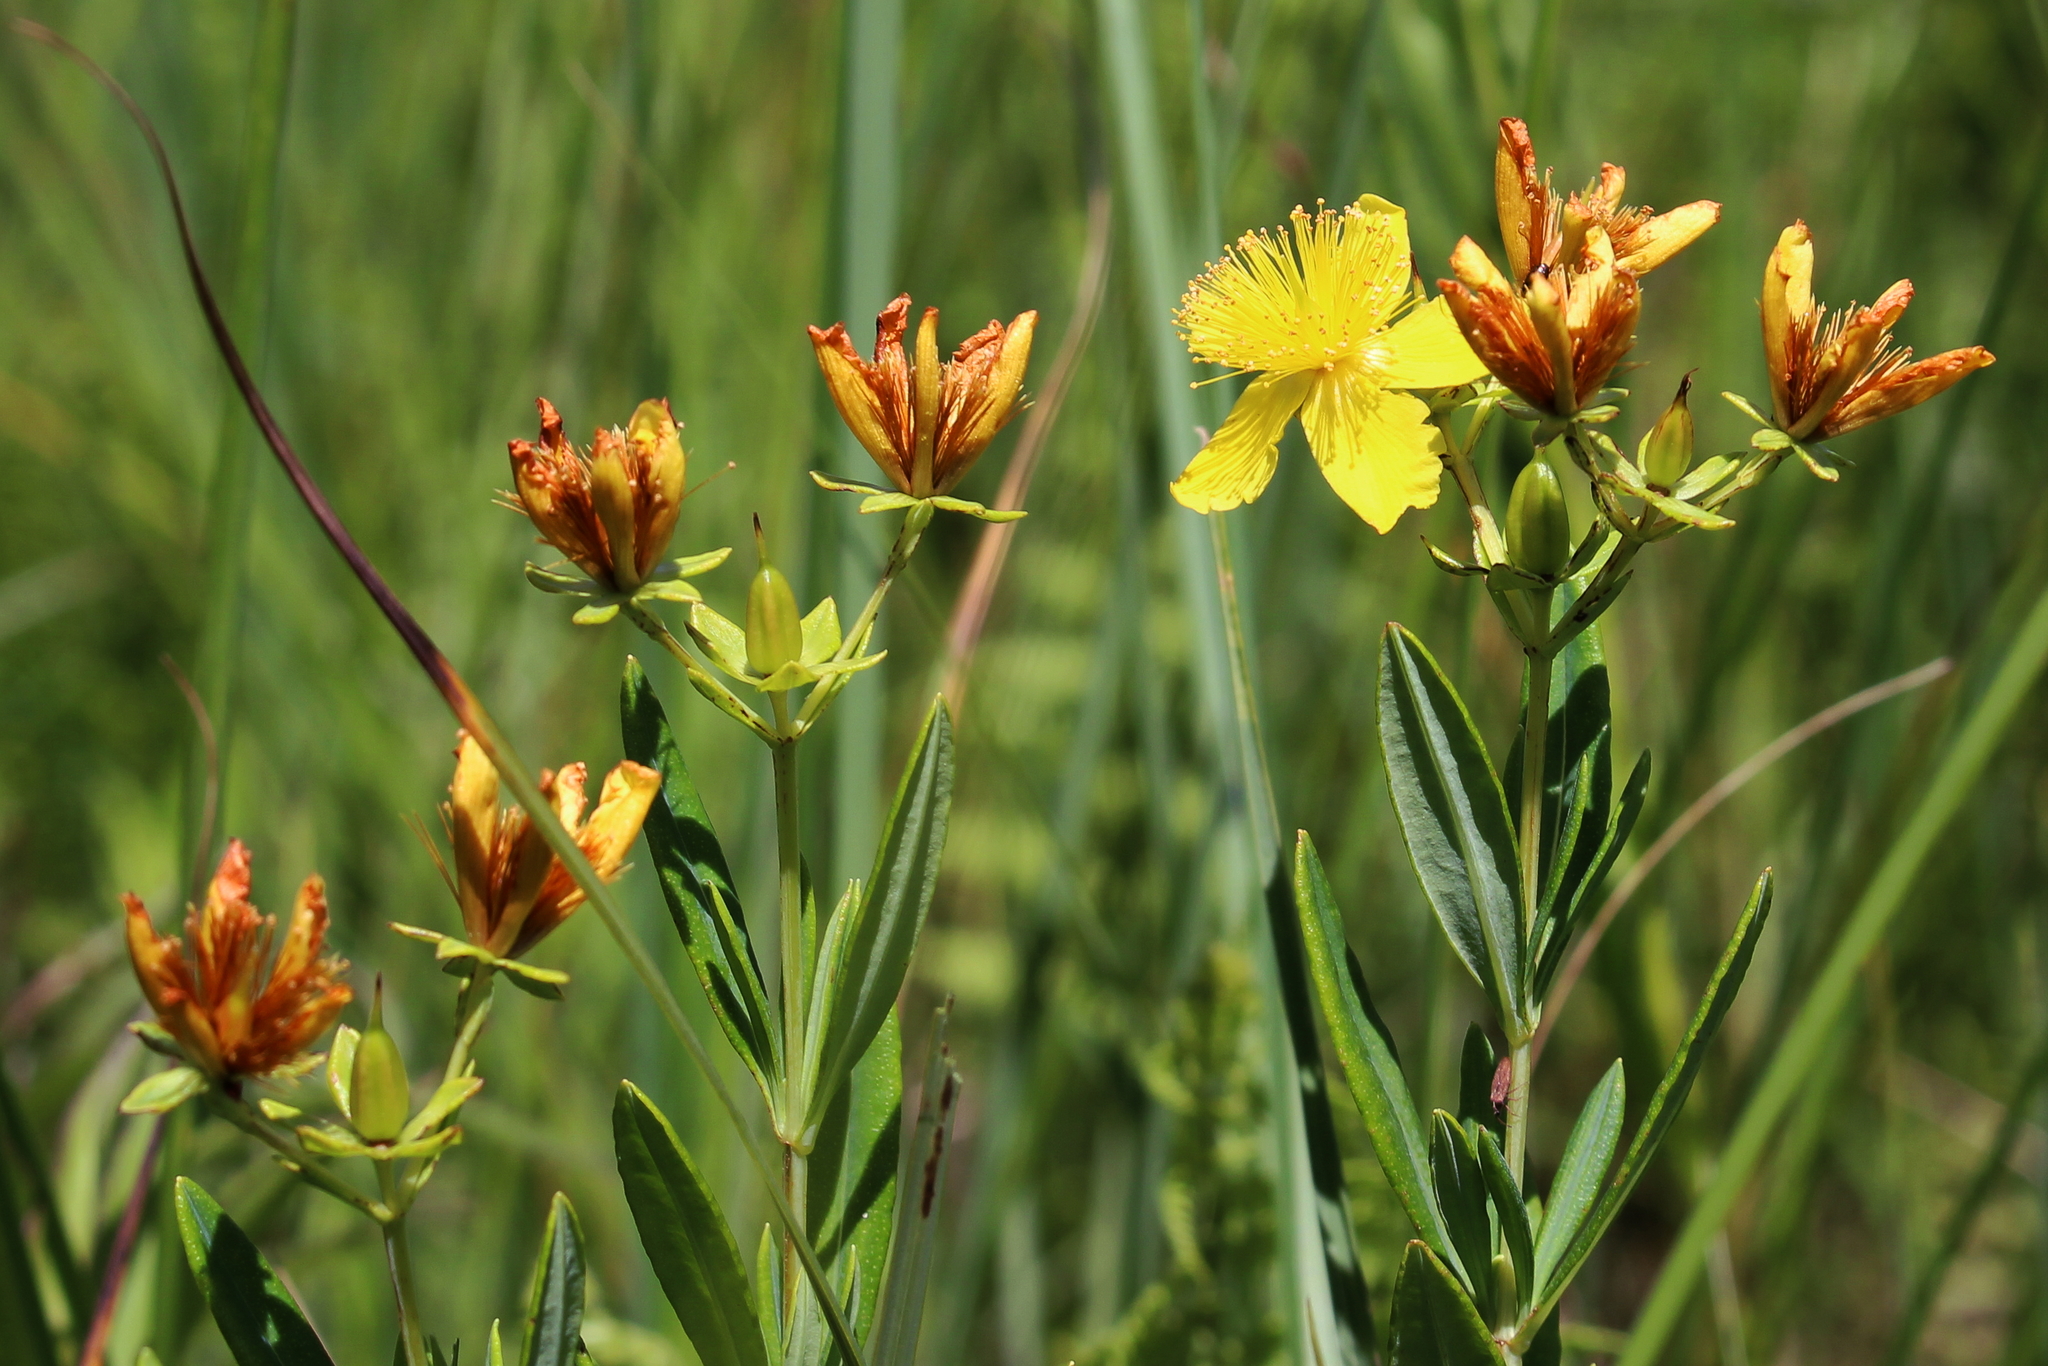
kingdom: Plantae
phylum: Tracheophyta
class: Magnoliopsida
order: Malpighiales
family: Hypericaceae
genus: Hypericum
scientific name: Hypericum kalmianum
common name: Kalm's st. john's-wort
